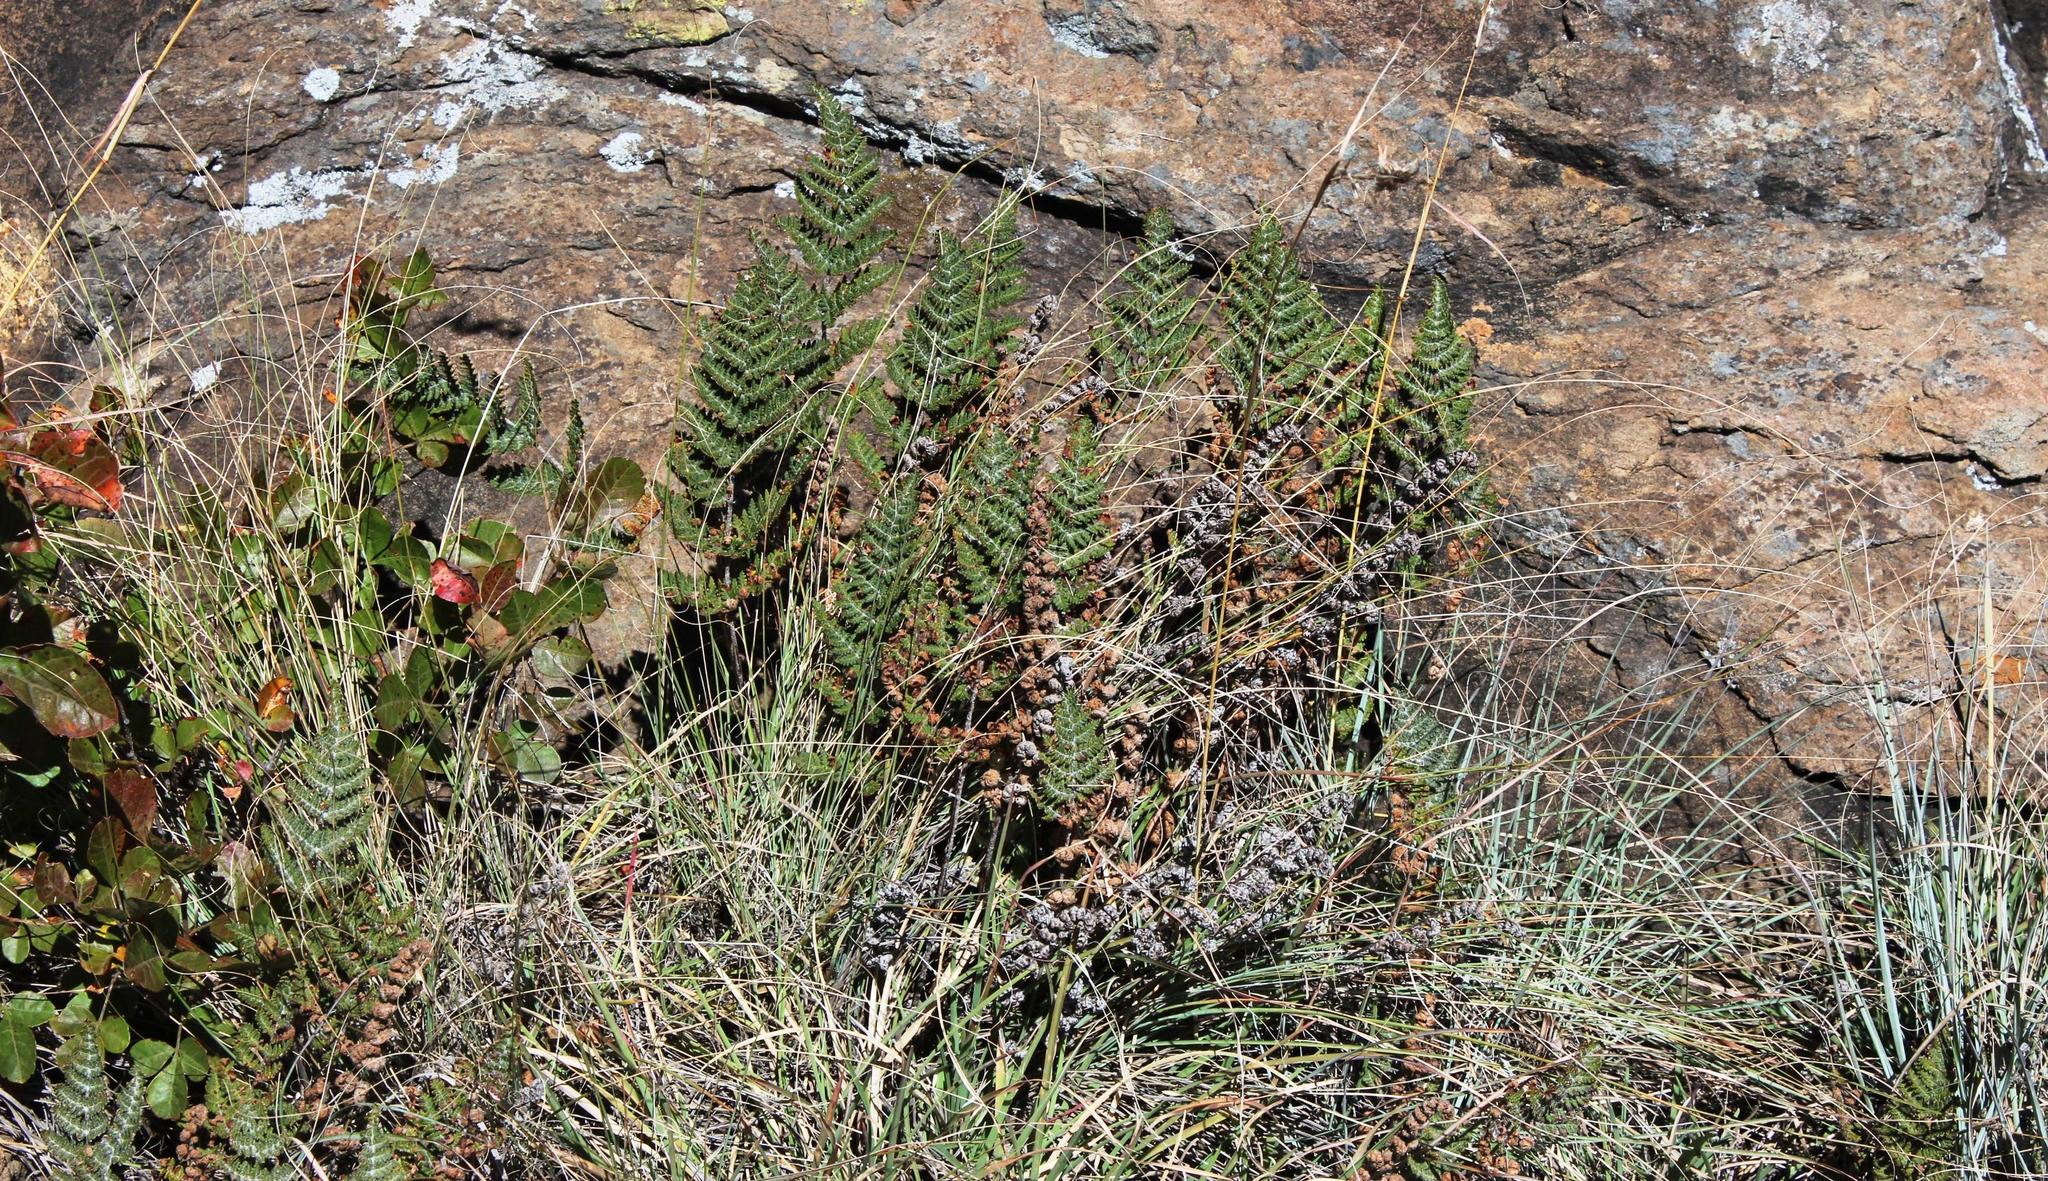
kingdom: Plantae
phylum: Tracheophyta
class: Polypodiopsida
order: Polypodiales
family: Pteridaceae
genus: Cheilanthes
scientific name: Cheilanthes eckloniana
